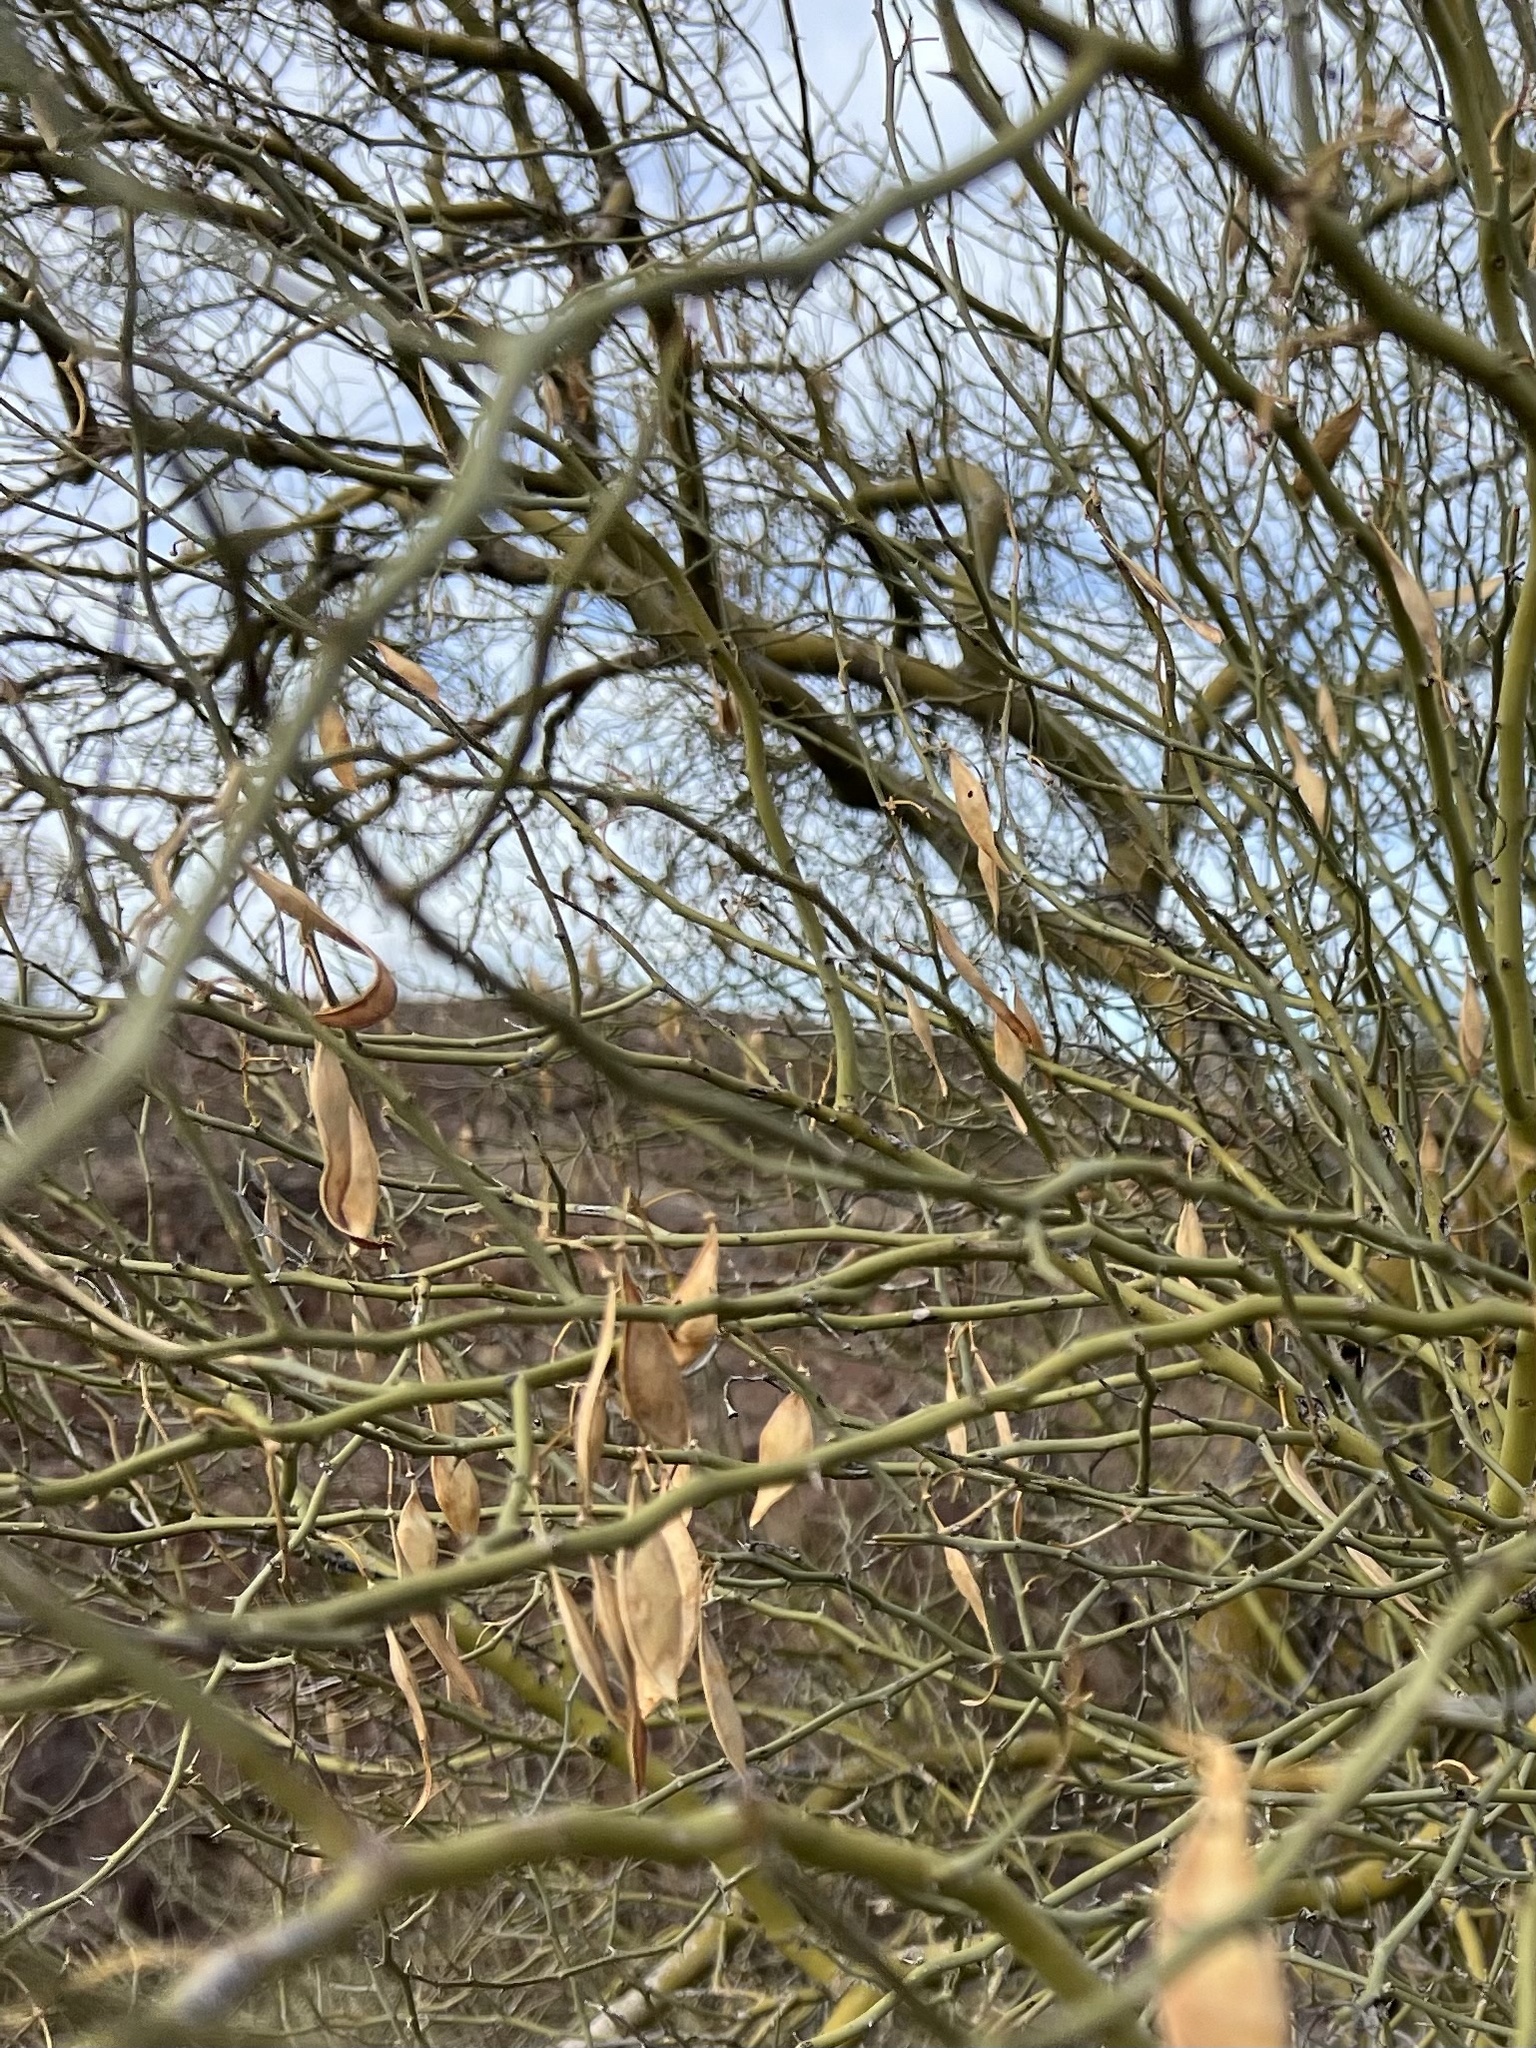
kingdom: Plantae
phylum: Tracheophyta
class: Magnoliopsida
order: Fabales
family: Fabaceae
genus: Parkinsonia
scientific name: Parkinsonia florida
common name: Blue paloverde
